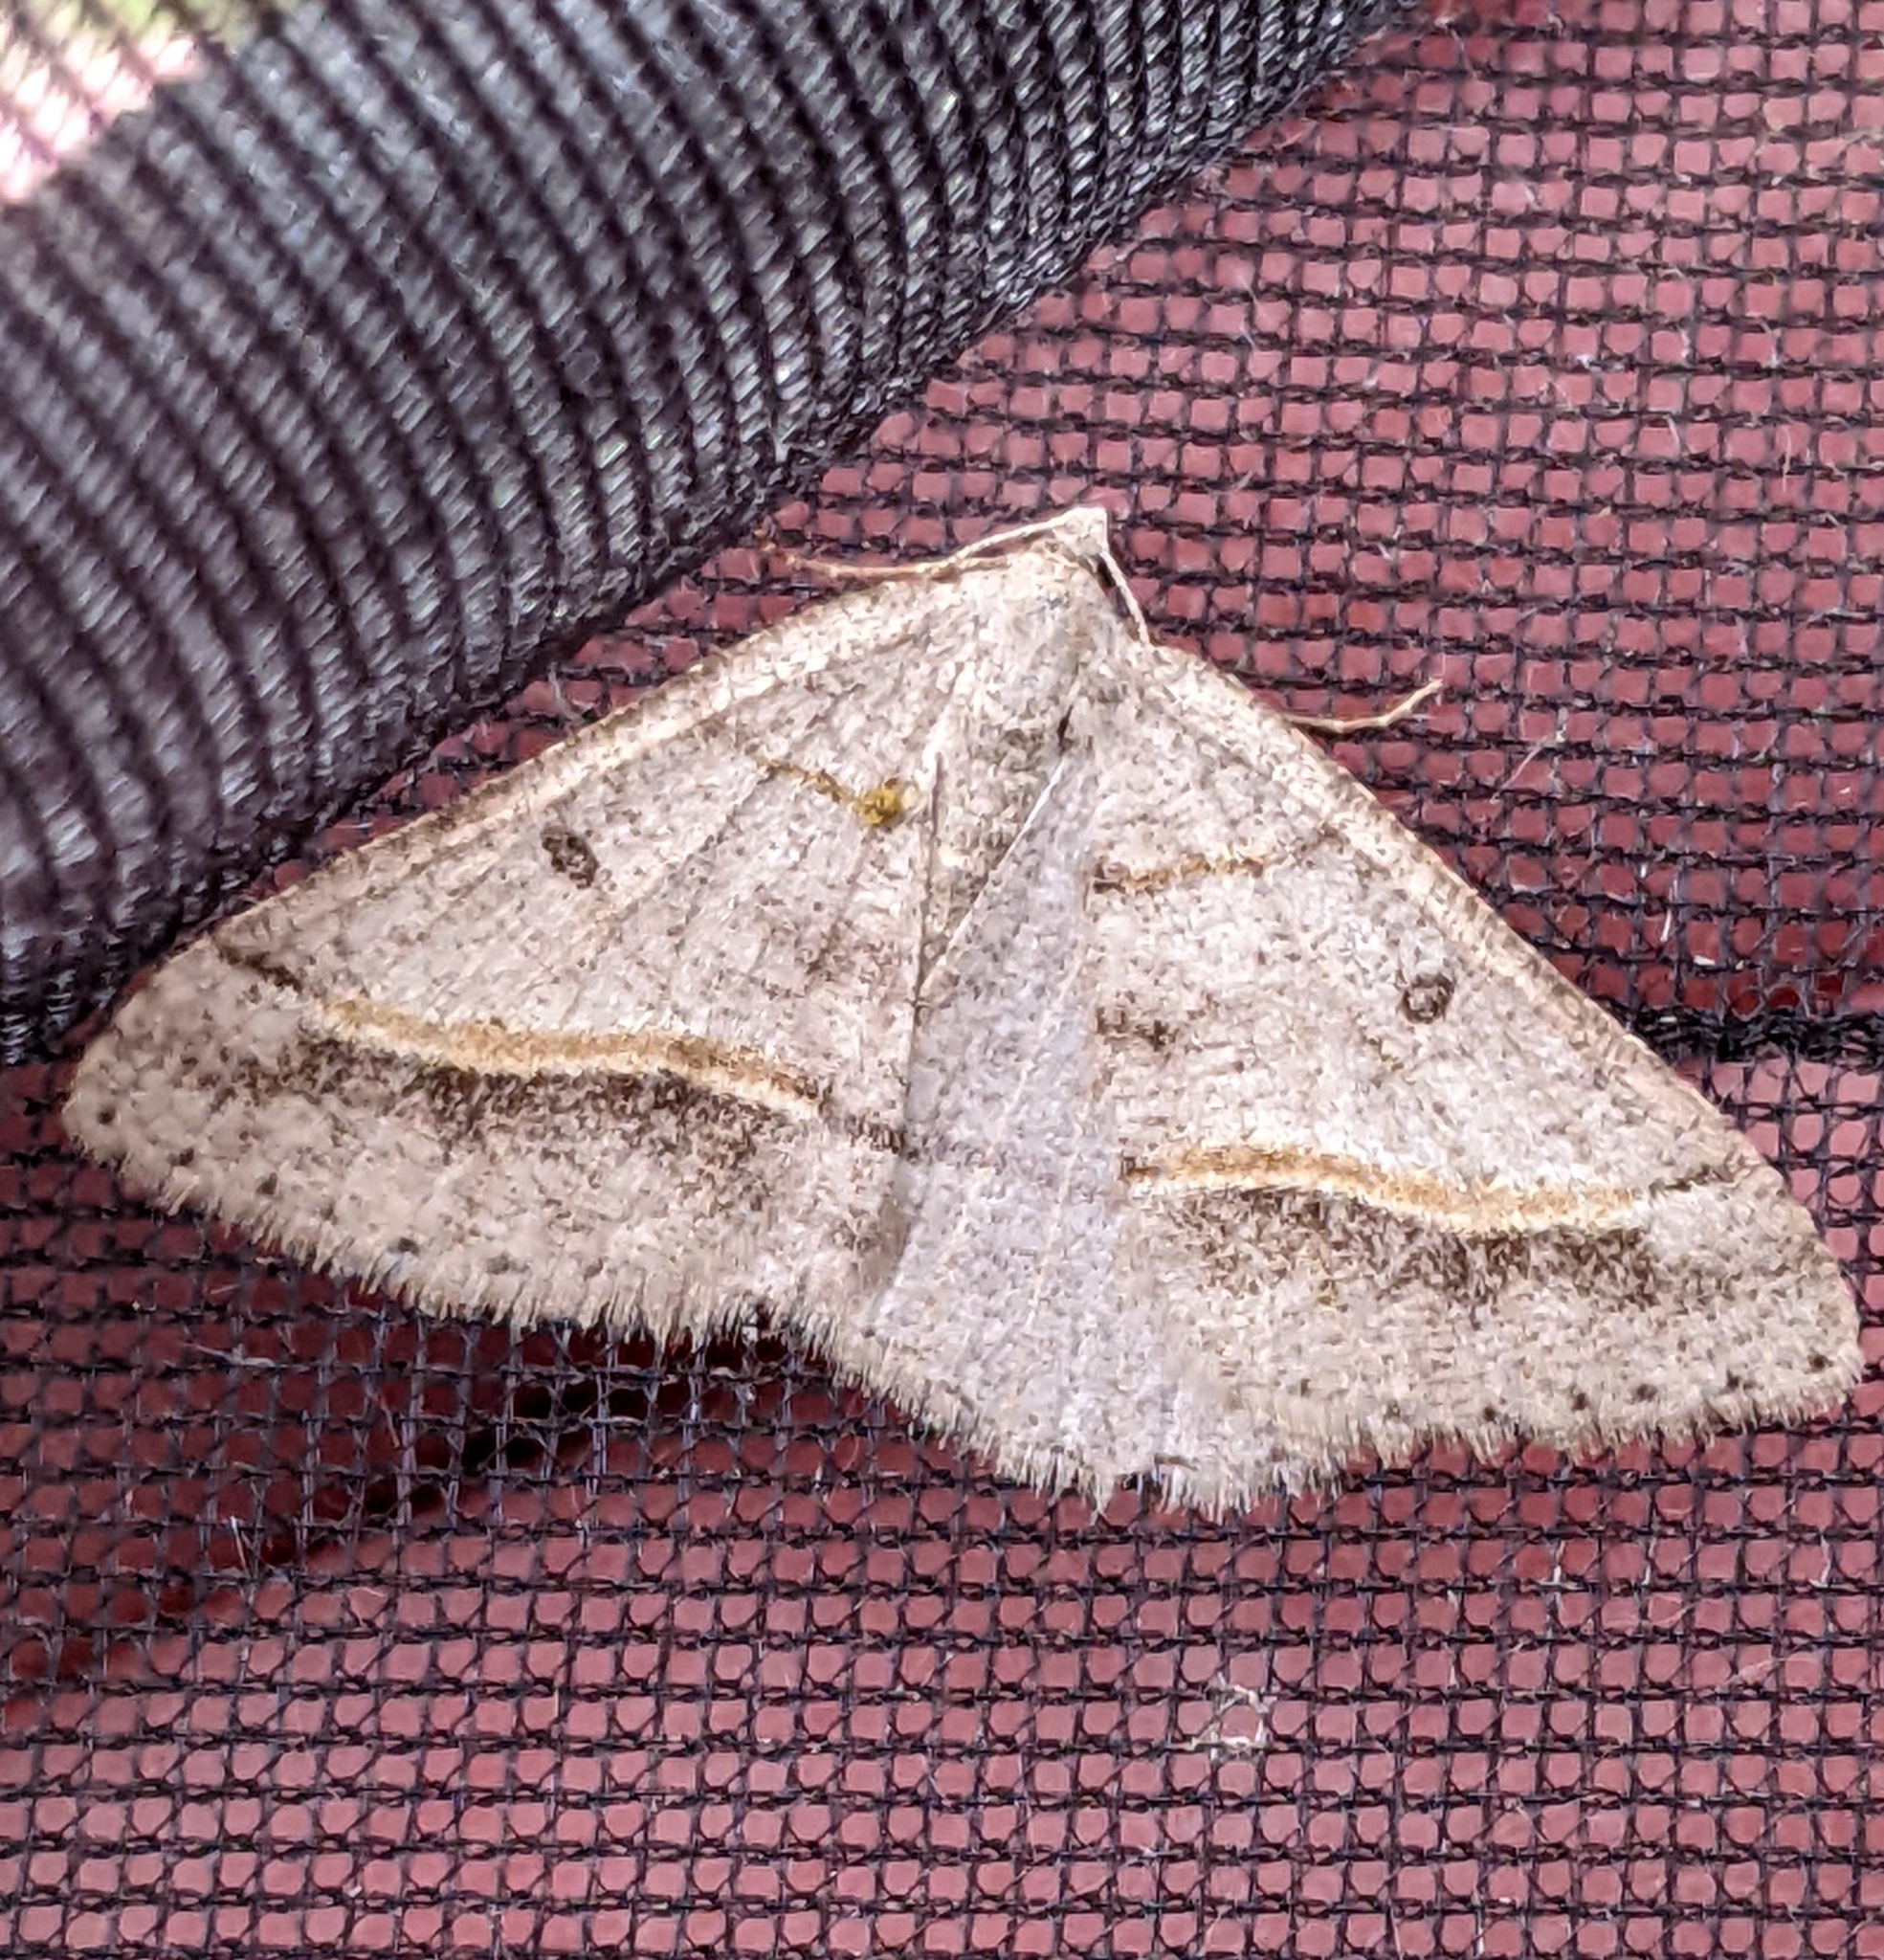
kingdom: Animalia
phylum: Arthropoda
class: Insecta
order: Lepidoptera
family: Geometridae
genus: Digrammia
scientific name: Digrammia neptaria
